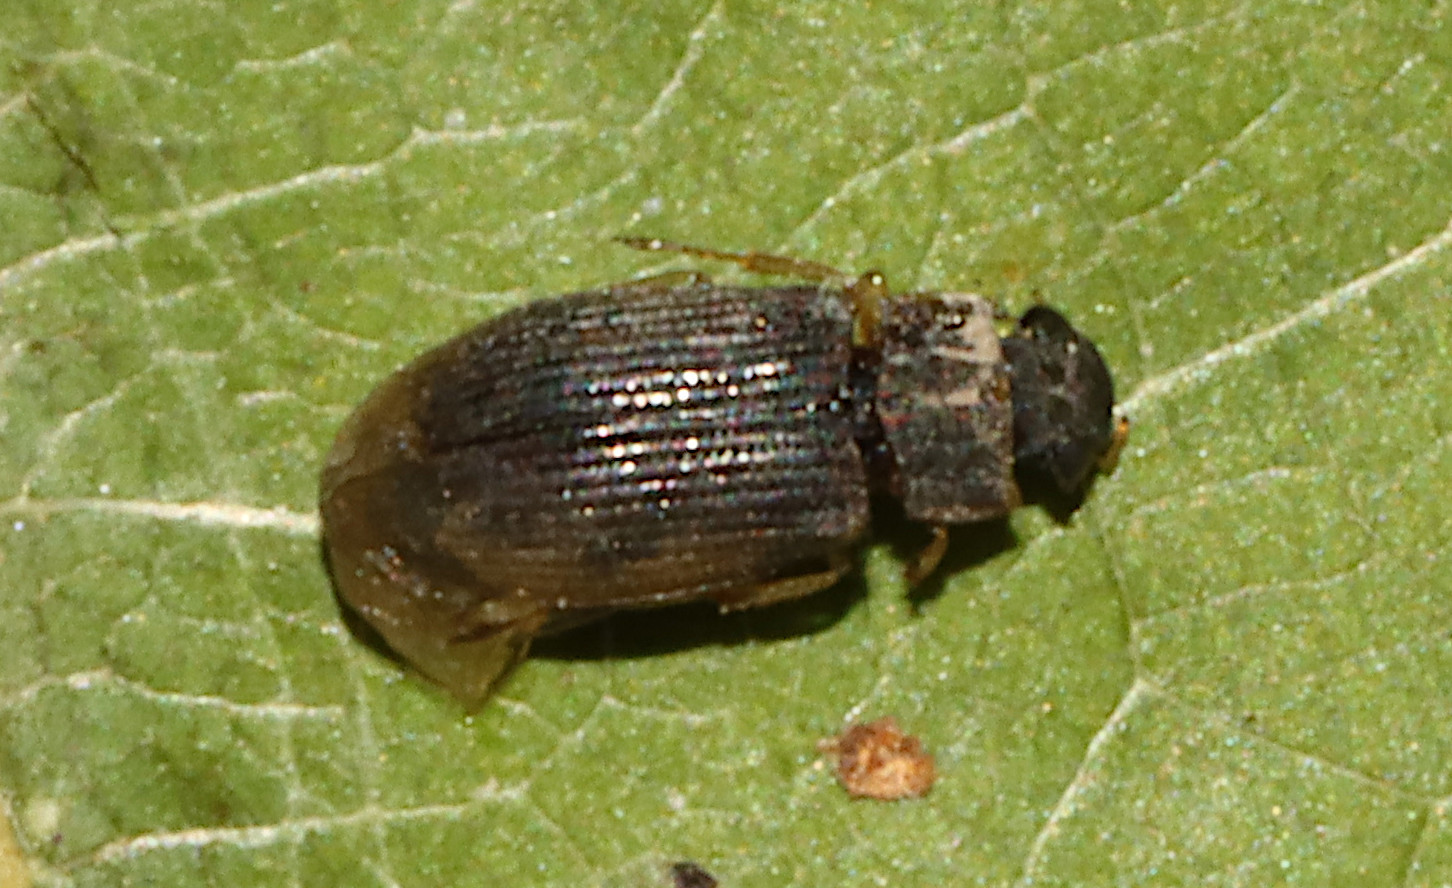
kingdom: Animalia
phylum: Arthropoda
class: Insecta
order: Coleoptera
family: Helophoridae
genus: Helophorus
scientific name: Helophorus
